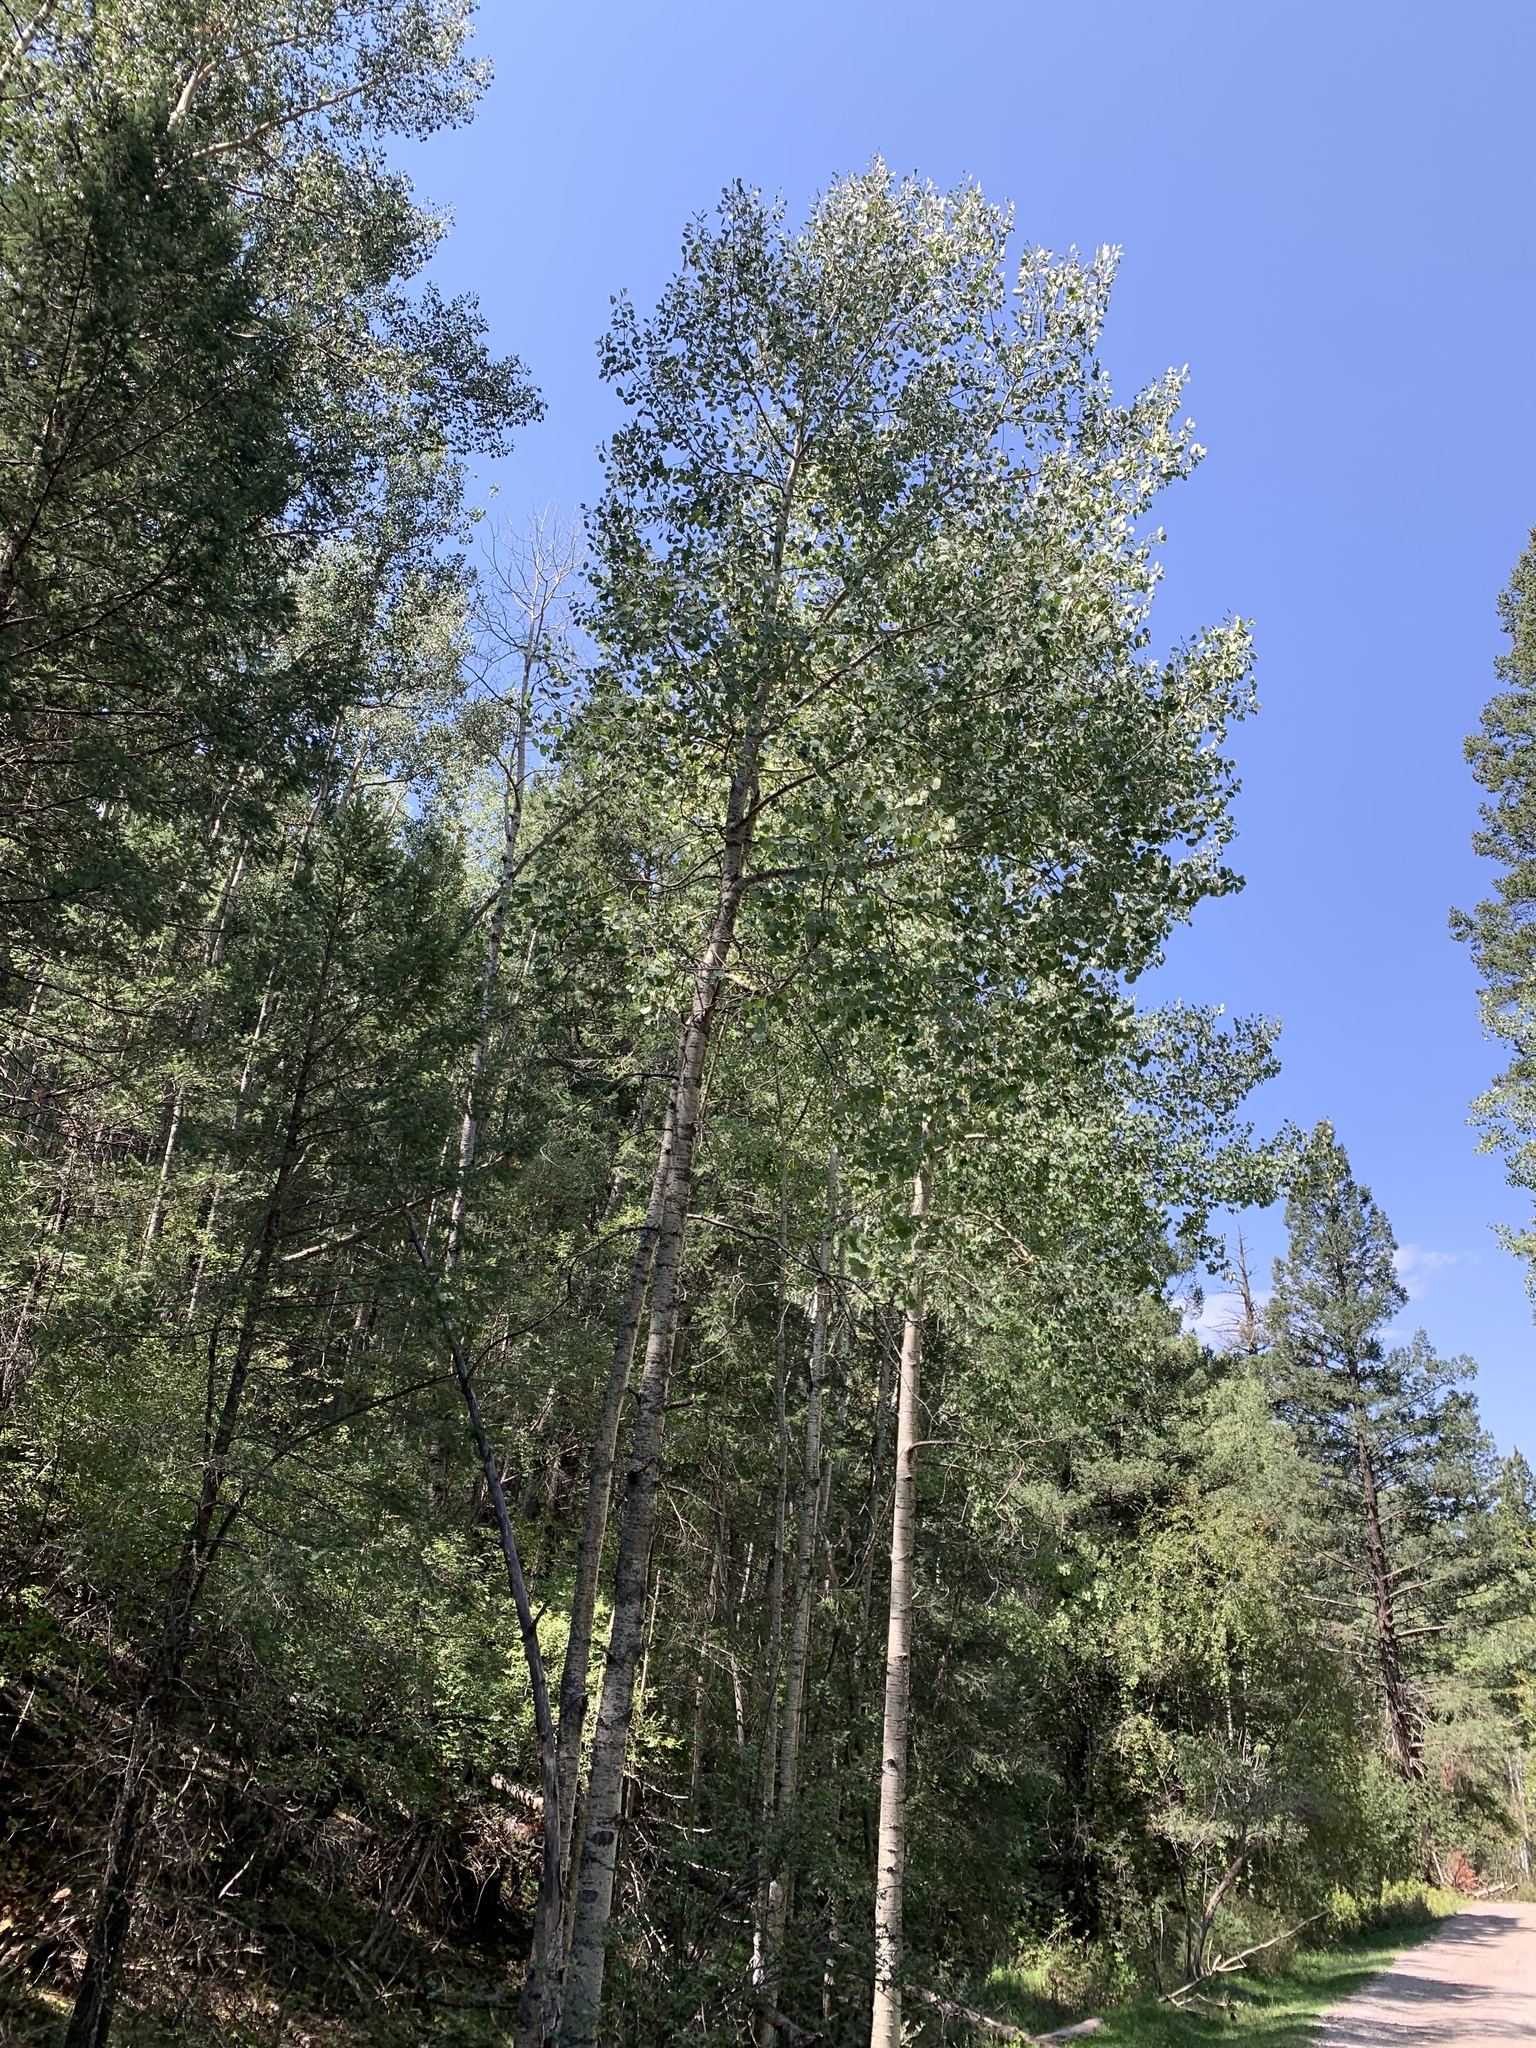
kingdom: Plantae
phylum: Tracheophyta
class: Magnoliopsida
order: Malpighiales
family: Salicaceae
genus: Populus
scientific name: Populus tremuloides
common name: Quaking aspen
